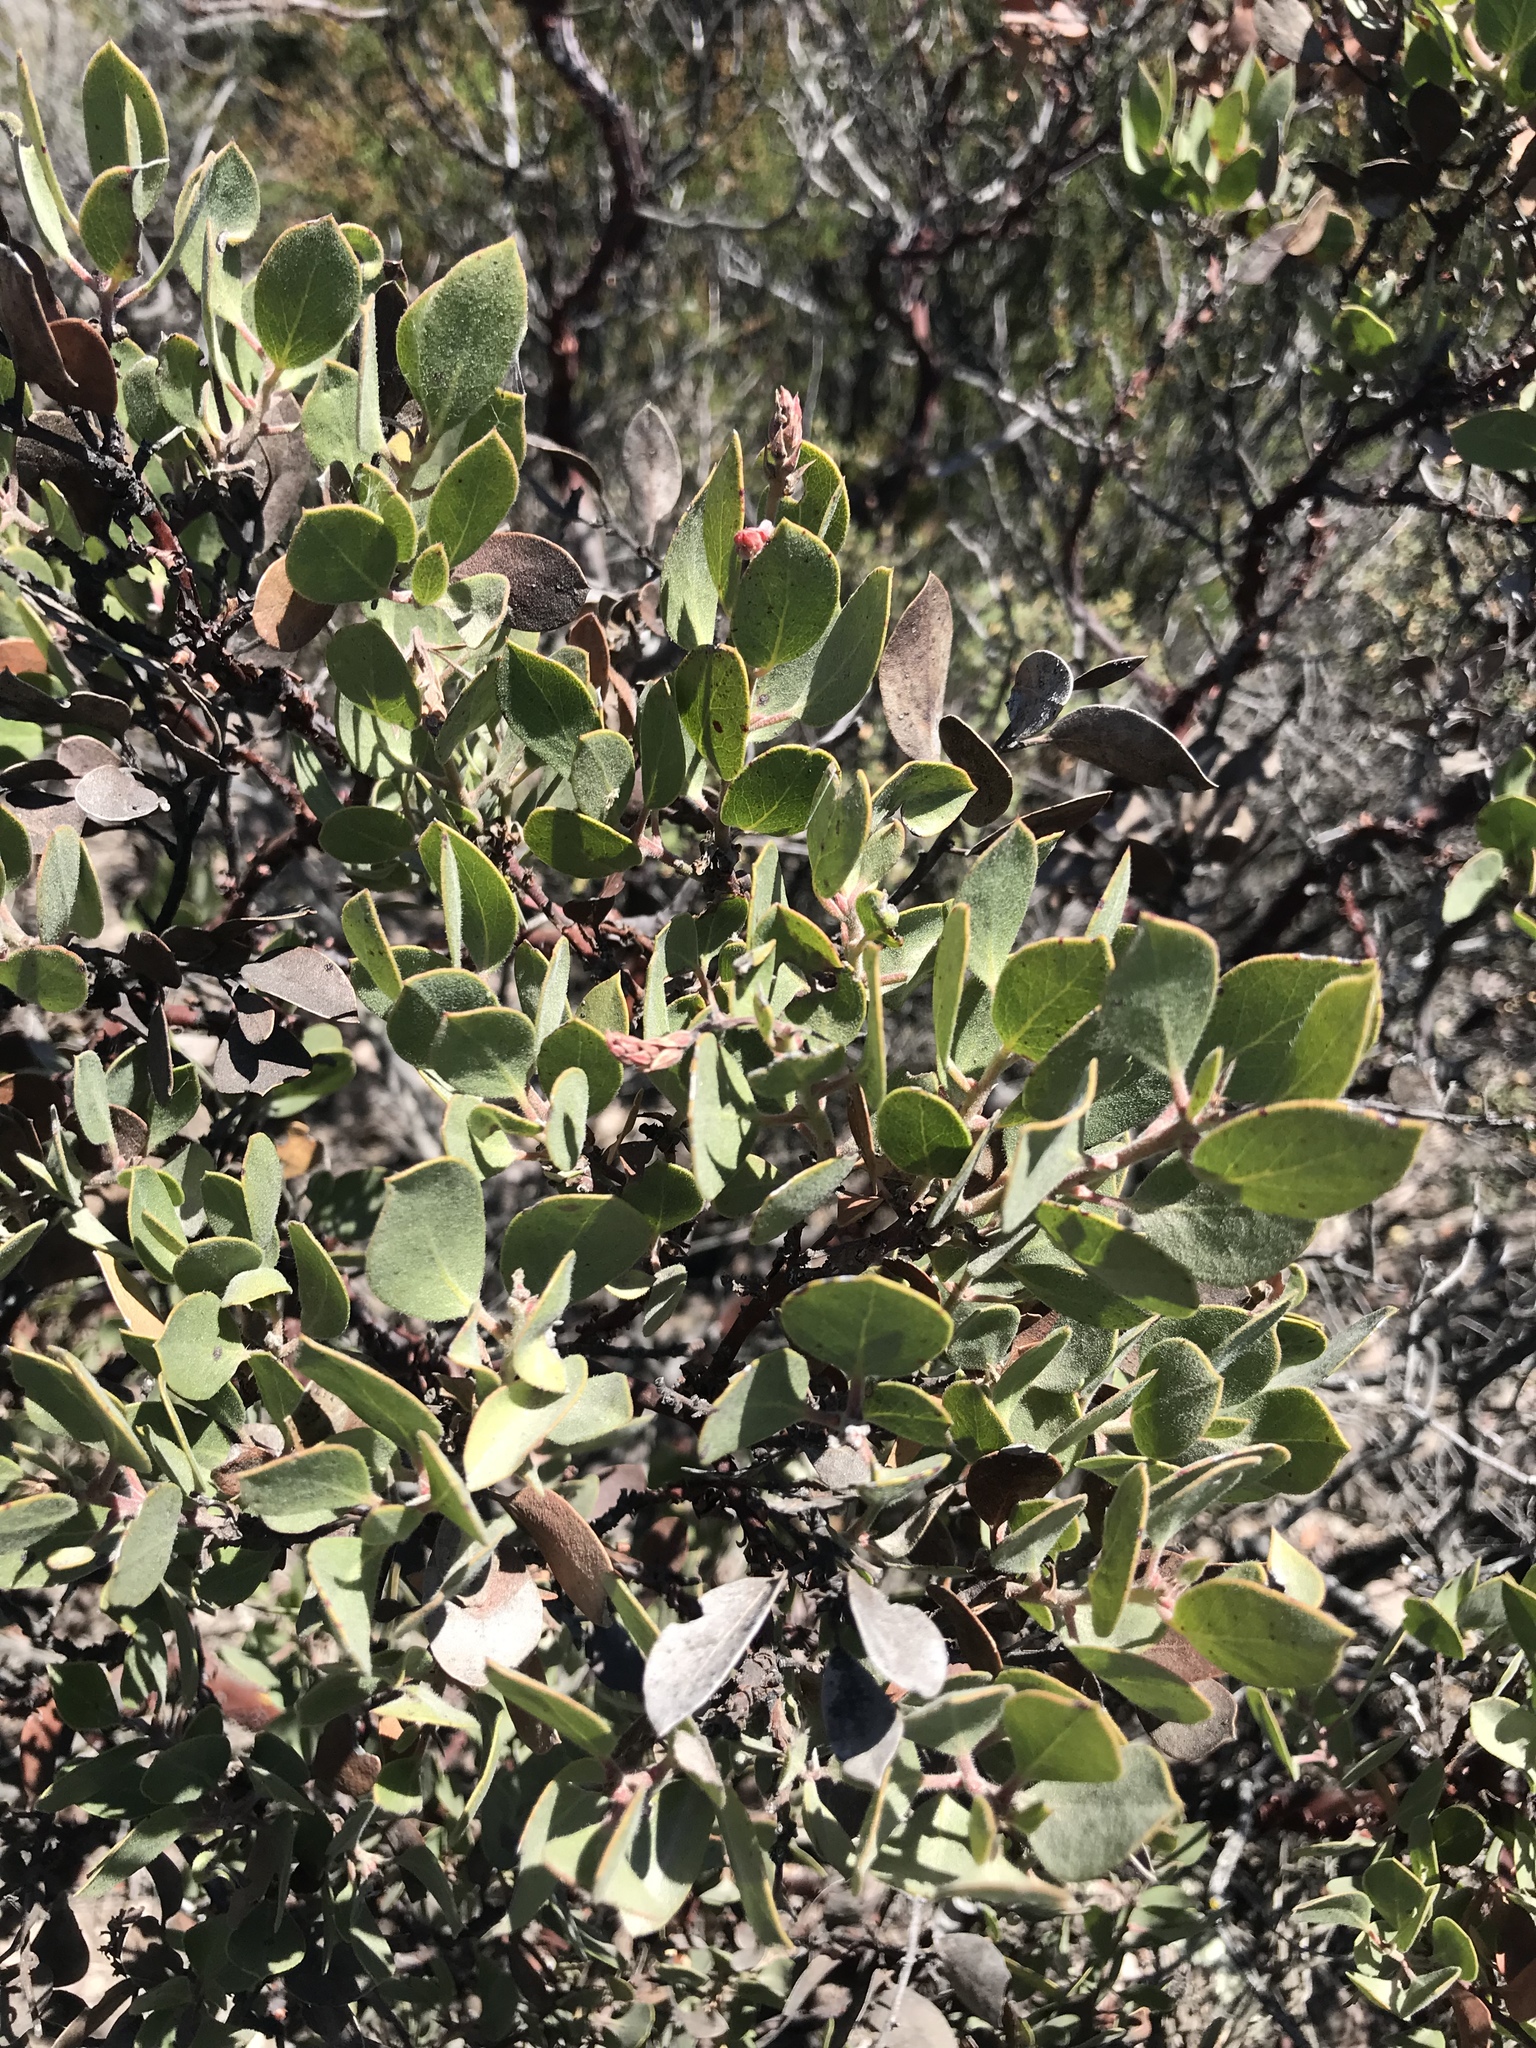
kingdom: Plantae
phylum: Tracheophyta
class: Magnoliopsida
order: Ericales
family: Ericaceae
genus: Arctostaphylos
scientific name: Arctostaphylos otayensis
